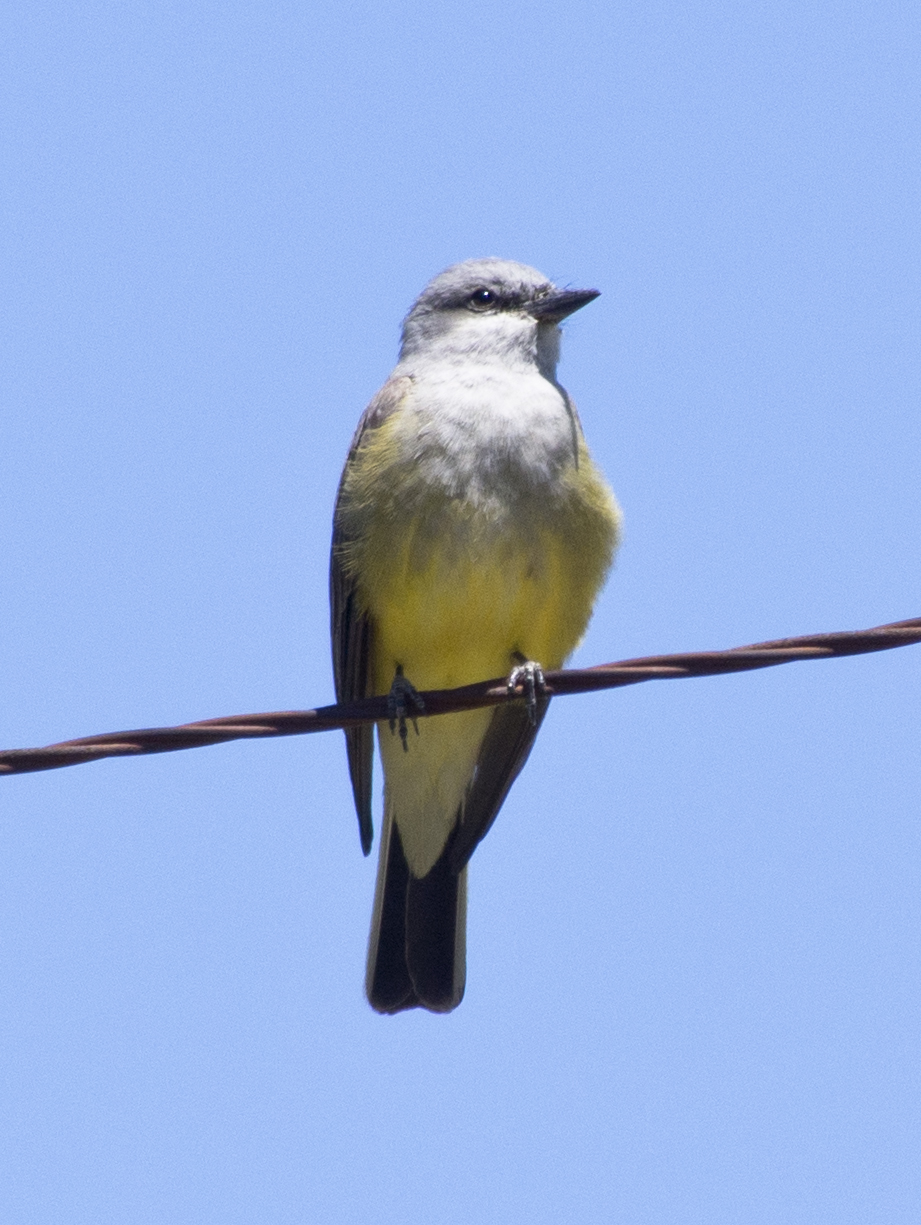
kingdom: Animalia
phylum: Chordata
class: Aves
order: Passeriformes
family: Tyrannidae
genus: Tyrannus
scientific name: Tyrannus verticalis
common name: Western kingbird
